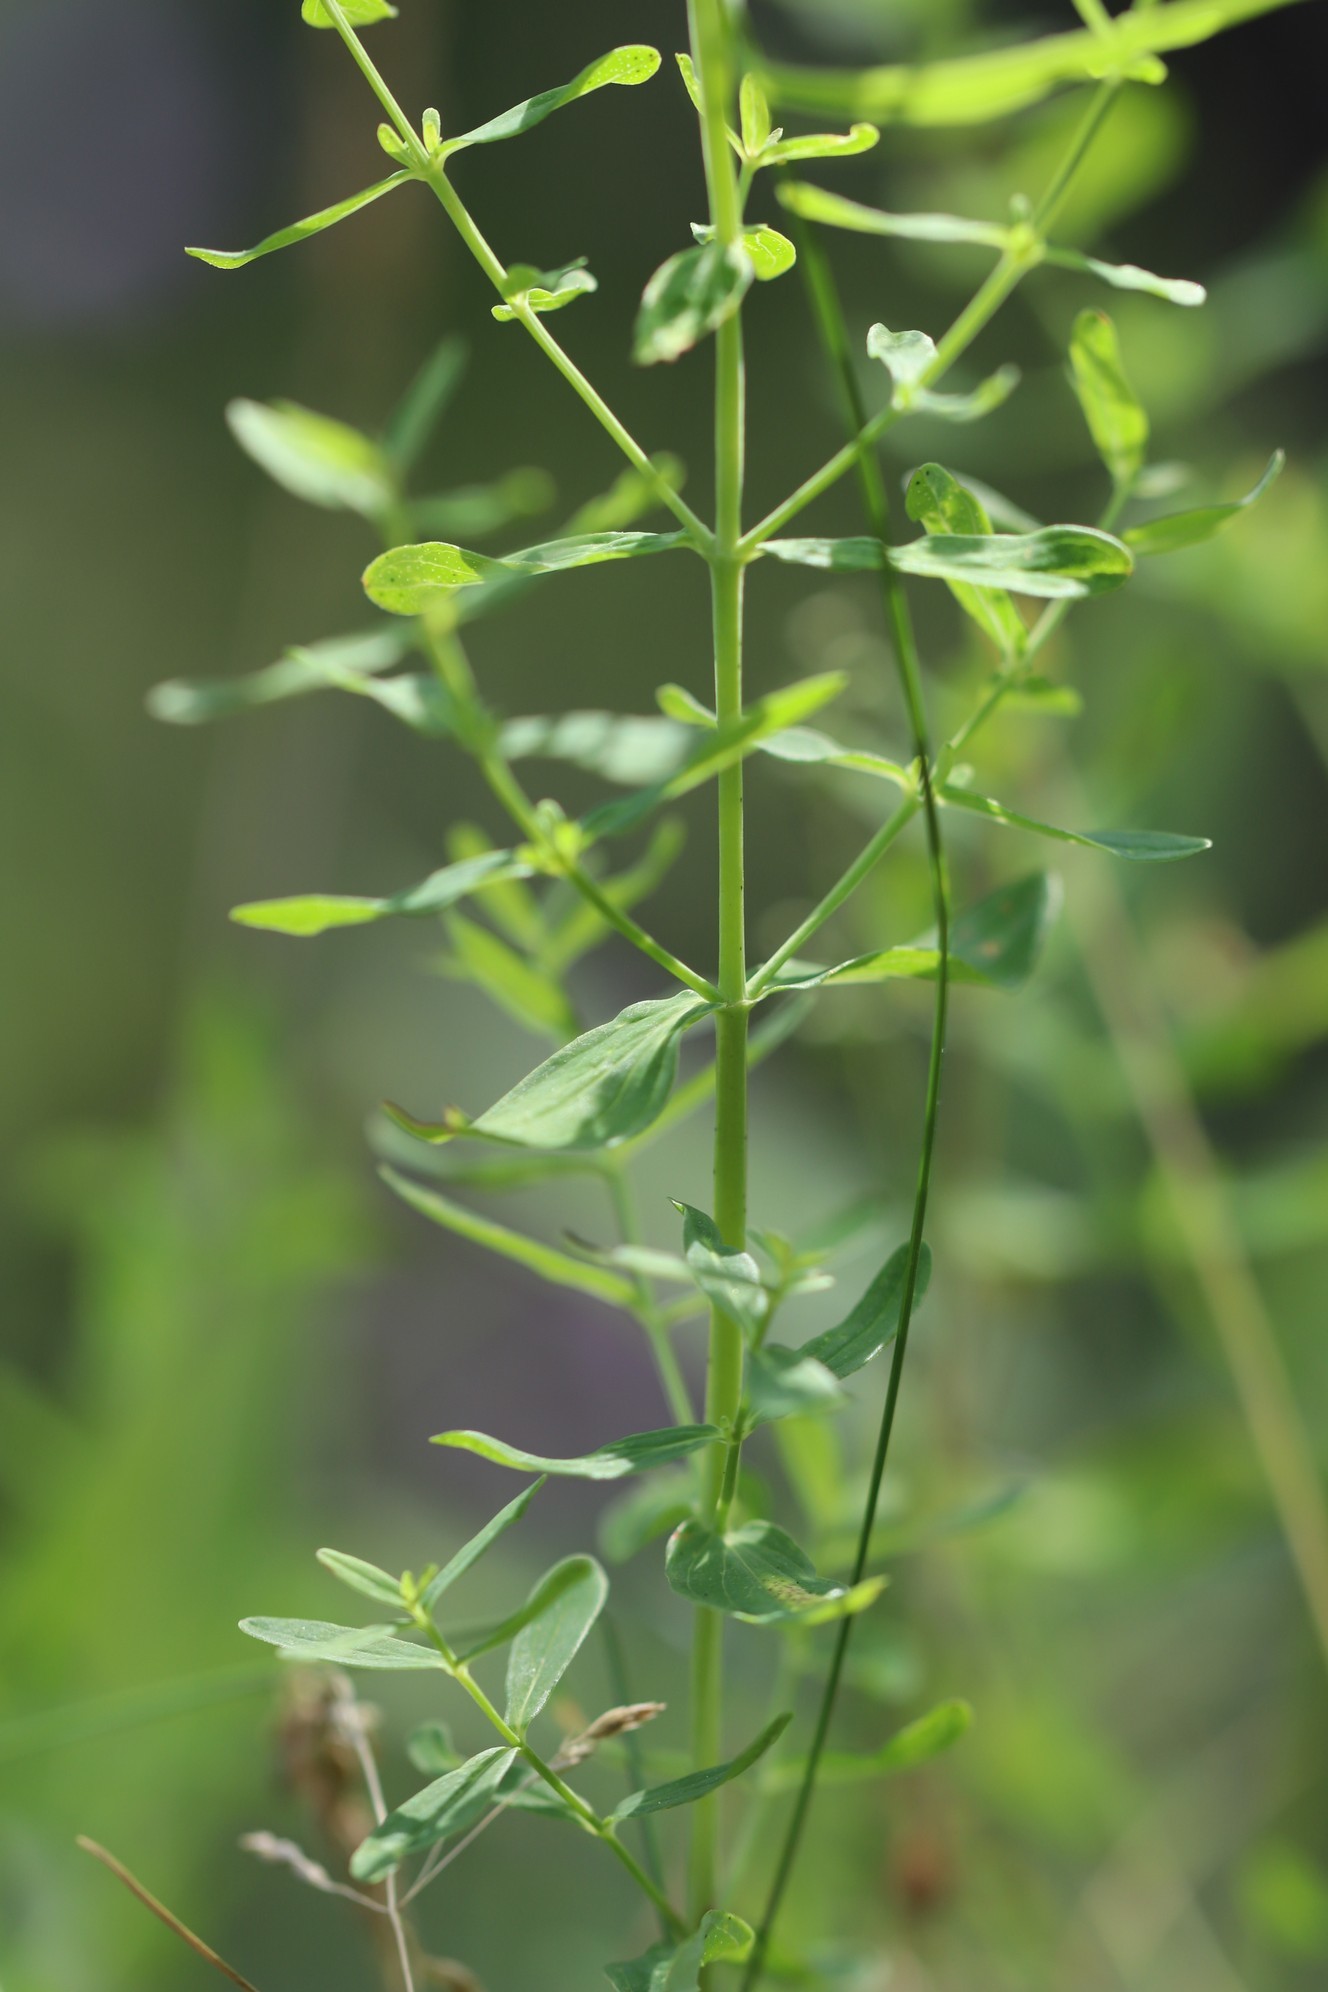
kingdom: Plantae
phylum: Tracheophyta
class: Magnoliopsida
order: Malpighiales
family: Hypericaceae
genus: Hypericum
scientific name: Hypericum perforatum
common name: Common st. johnswort
